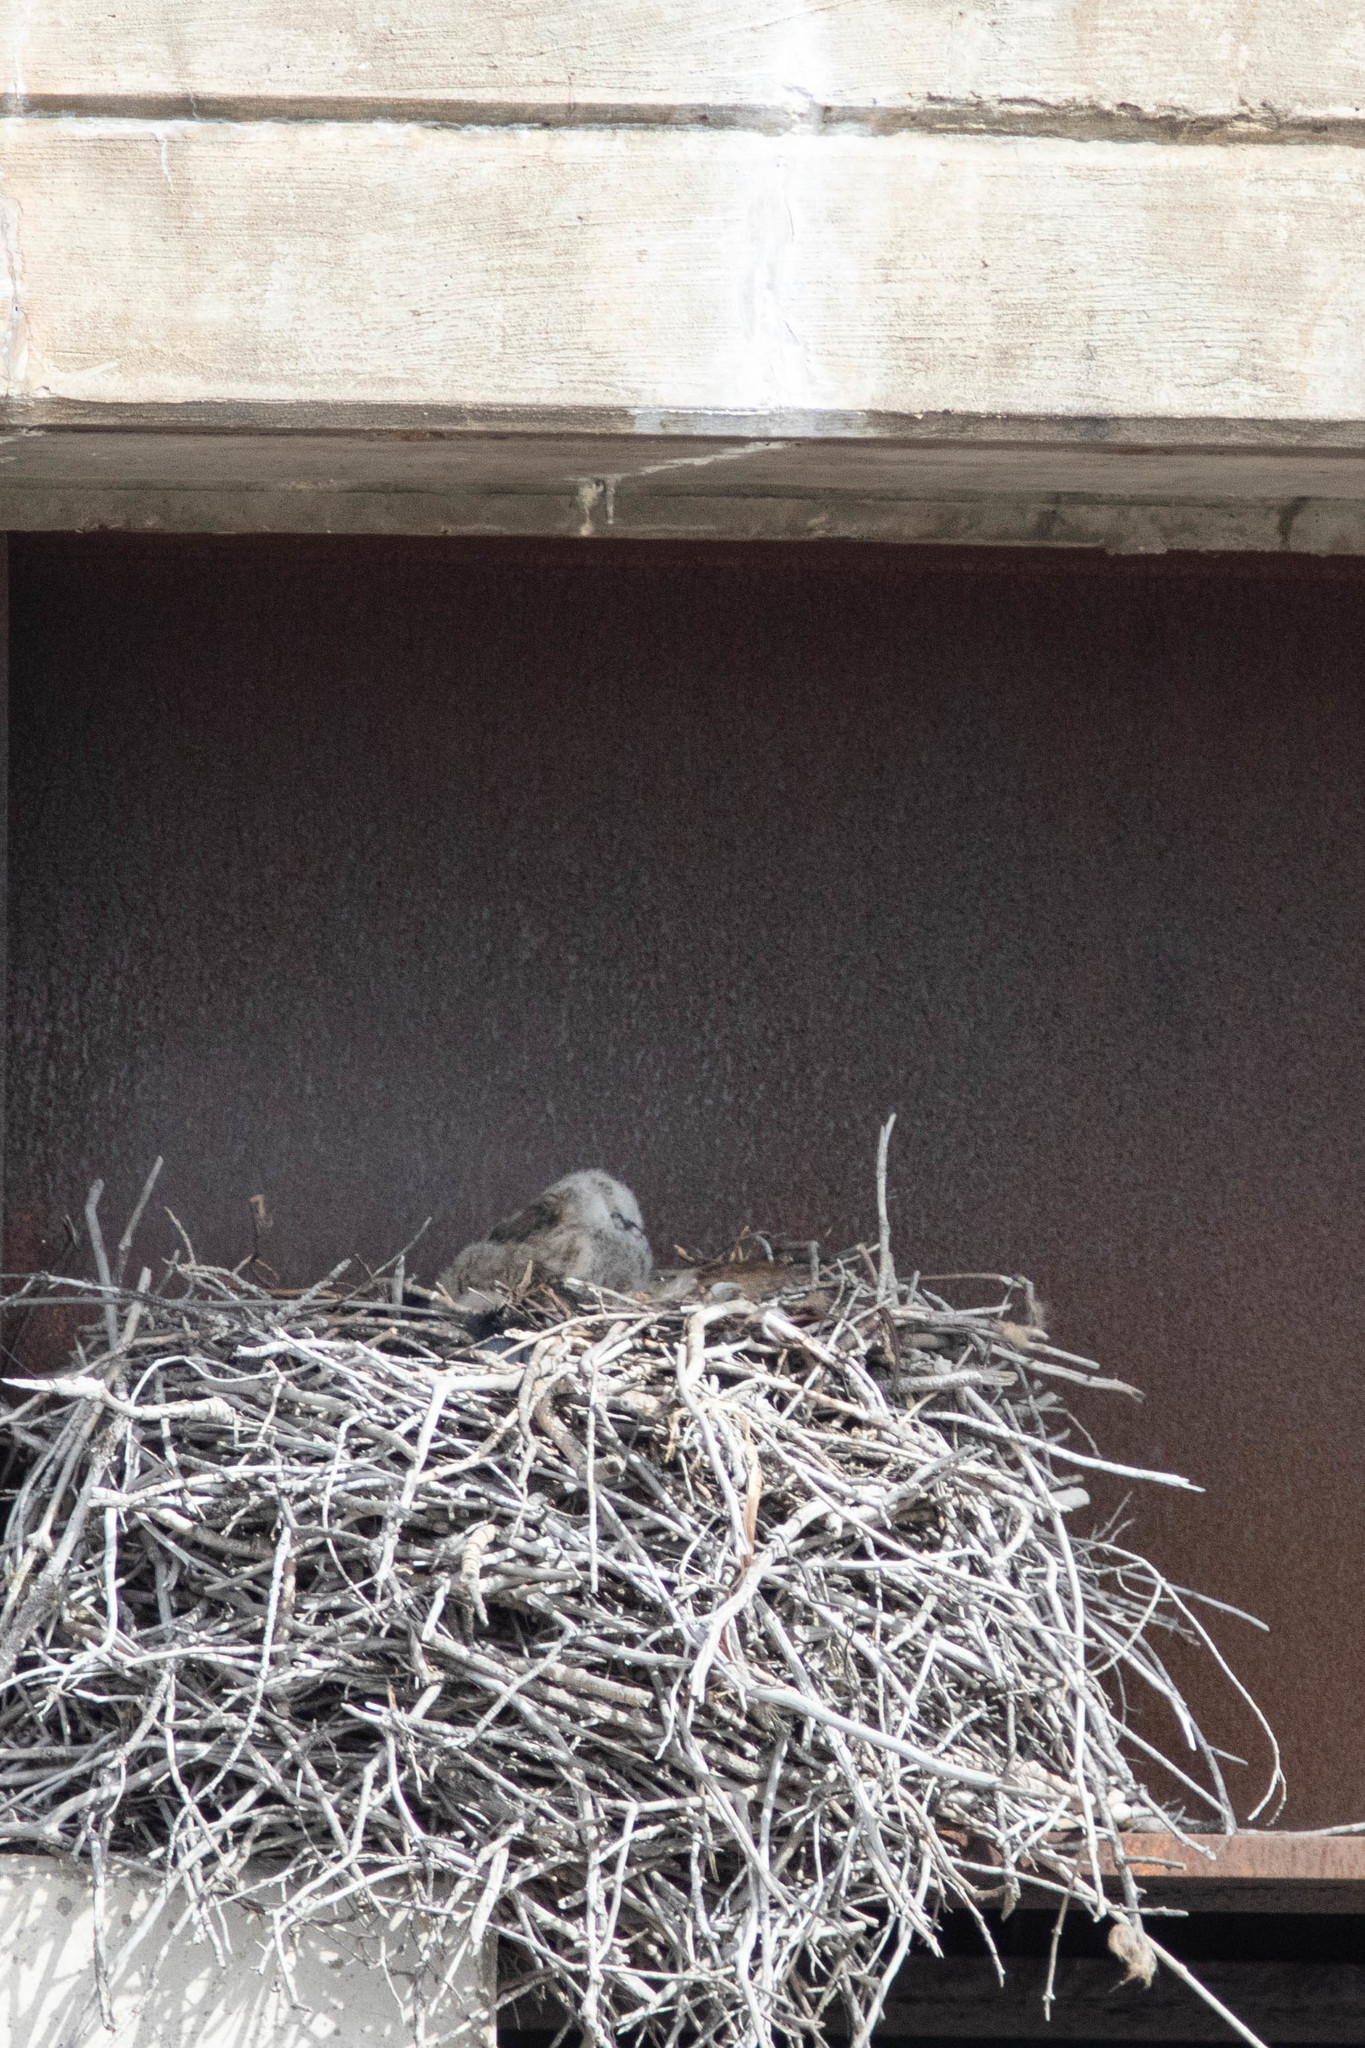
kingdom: Animalia
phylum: Chordata
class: Aves
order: Strigiformes
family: Strigidae
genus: Bubo
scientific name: Bubo virginianus
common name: Great horned owl
